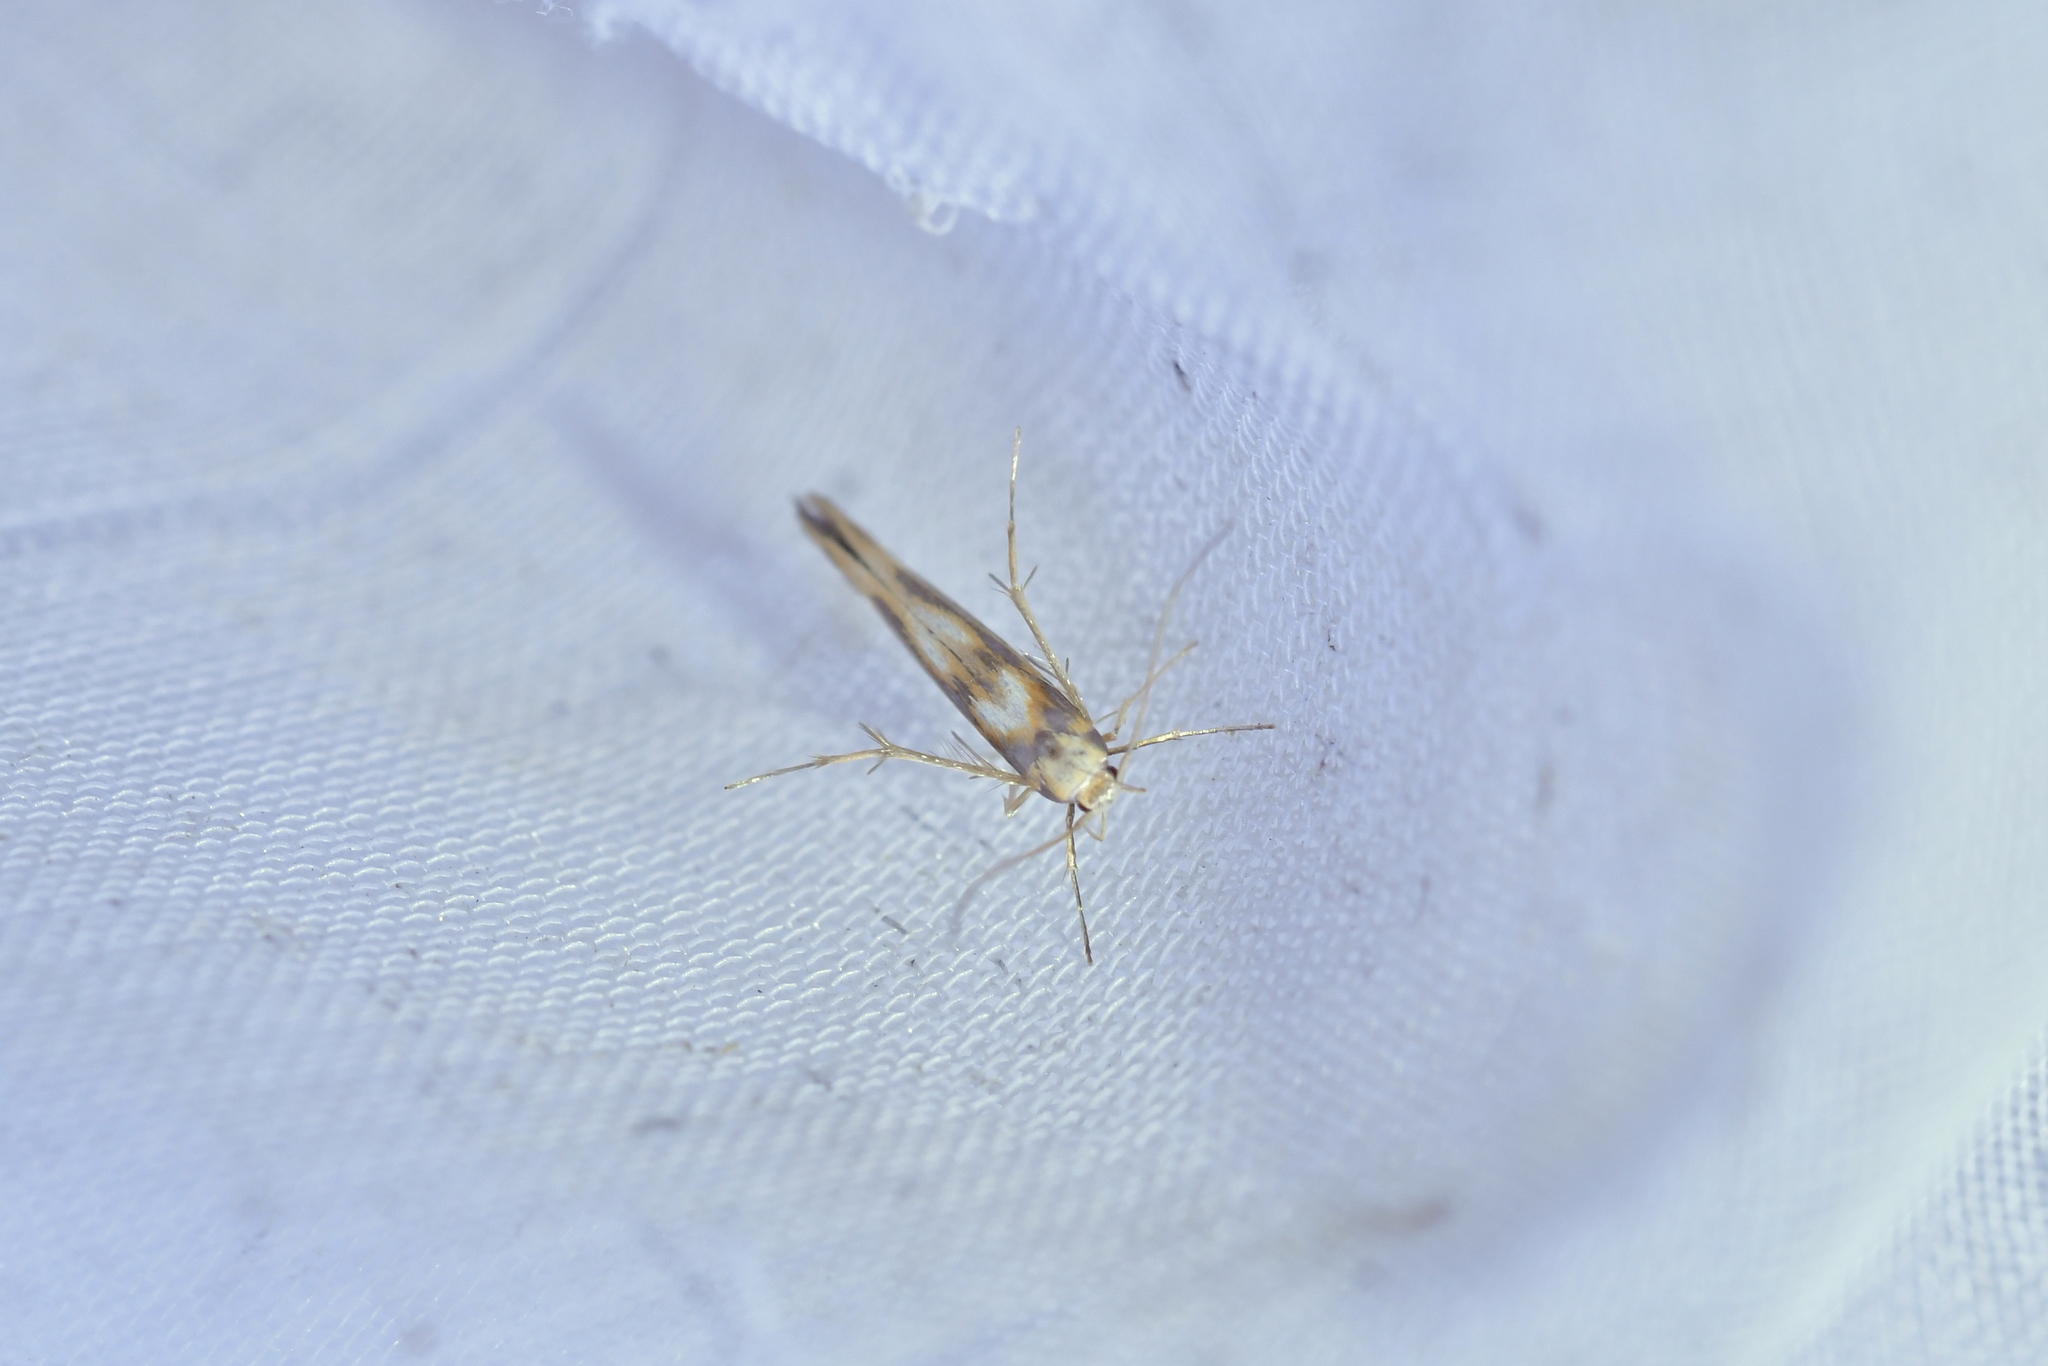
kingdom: Animalia
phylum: Arthropoda
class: Insecta
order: Lepidoptera
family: Stathmopodidae
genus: Stathmopoda
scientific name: Stathmopoda caminora
